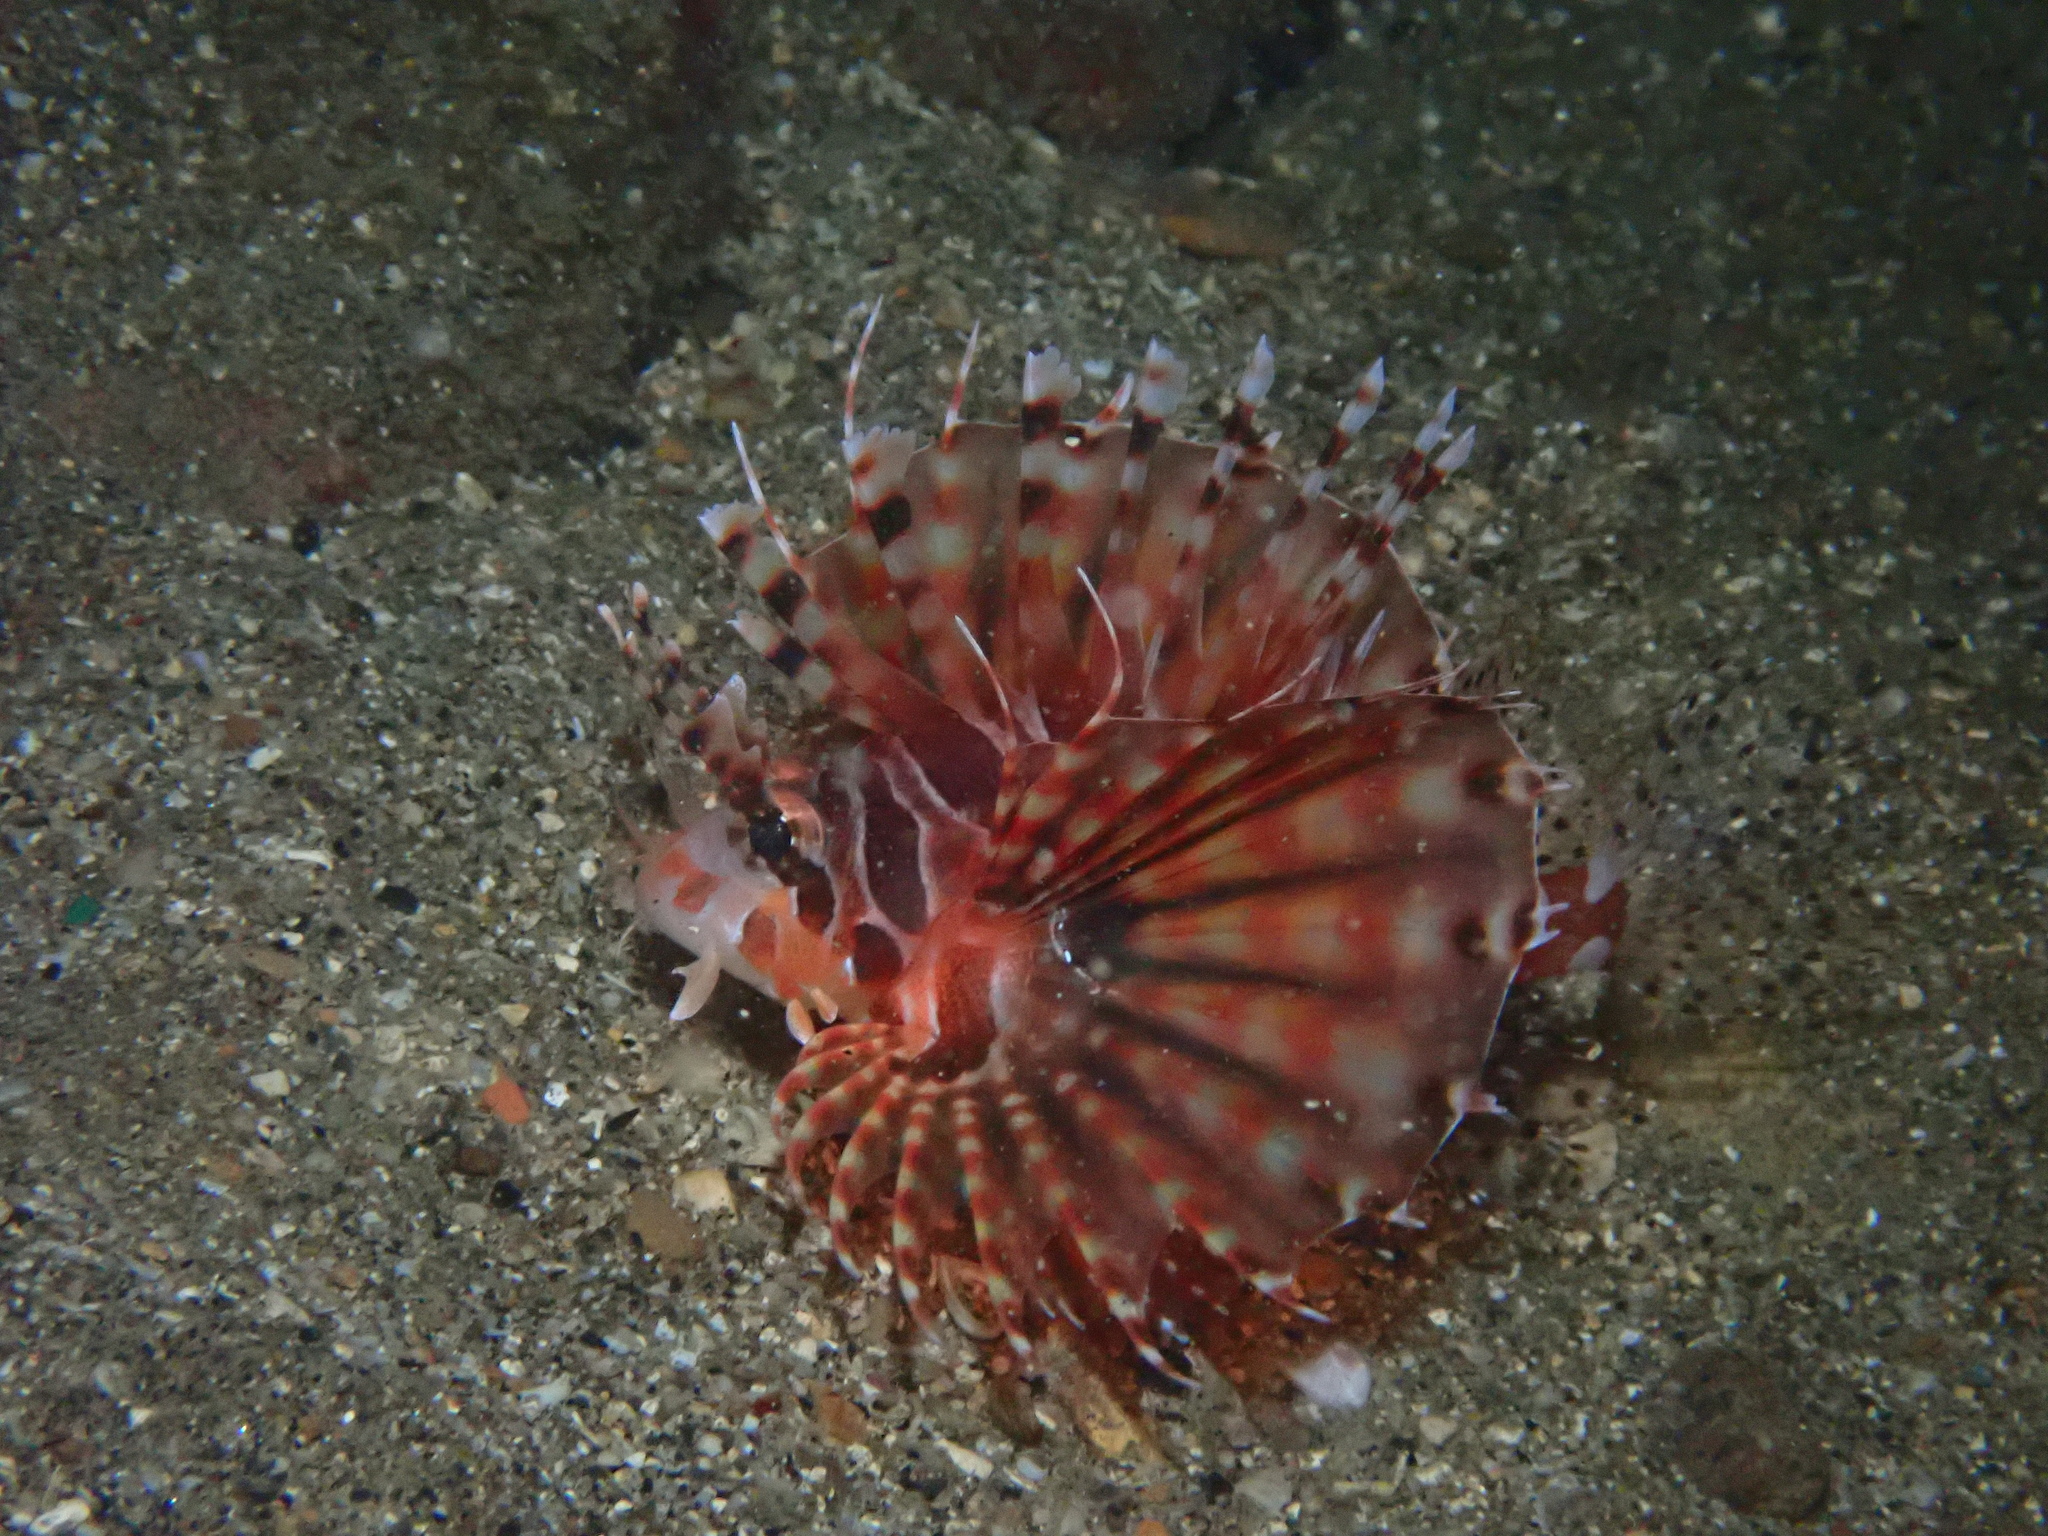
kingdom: Animalia
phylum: Chordata
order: Scorpaeniformes
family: Scorpaenidae
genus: Dendrochirus
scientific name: Dendrochirus zebra
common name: Zebra lionfish
